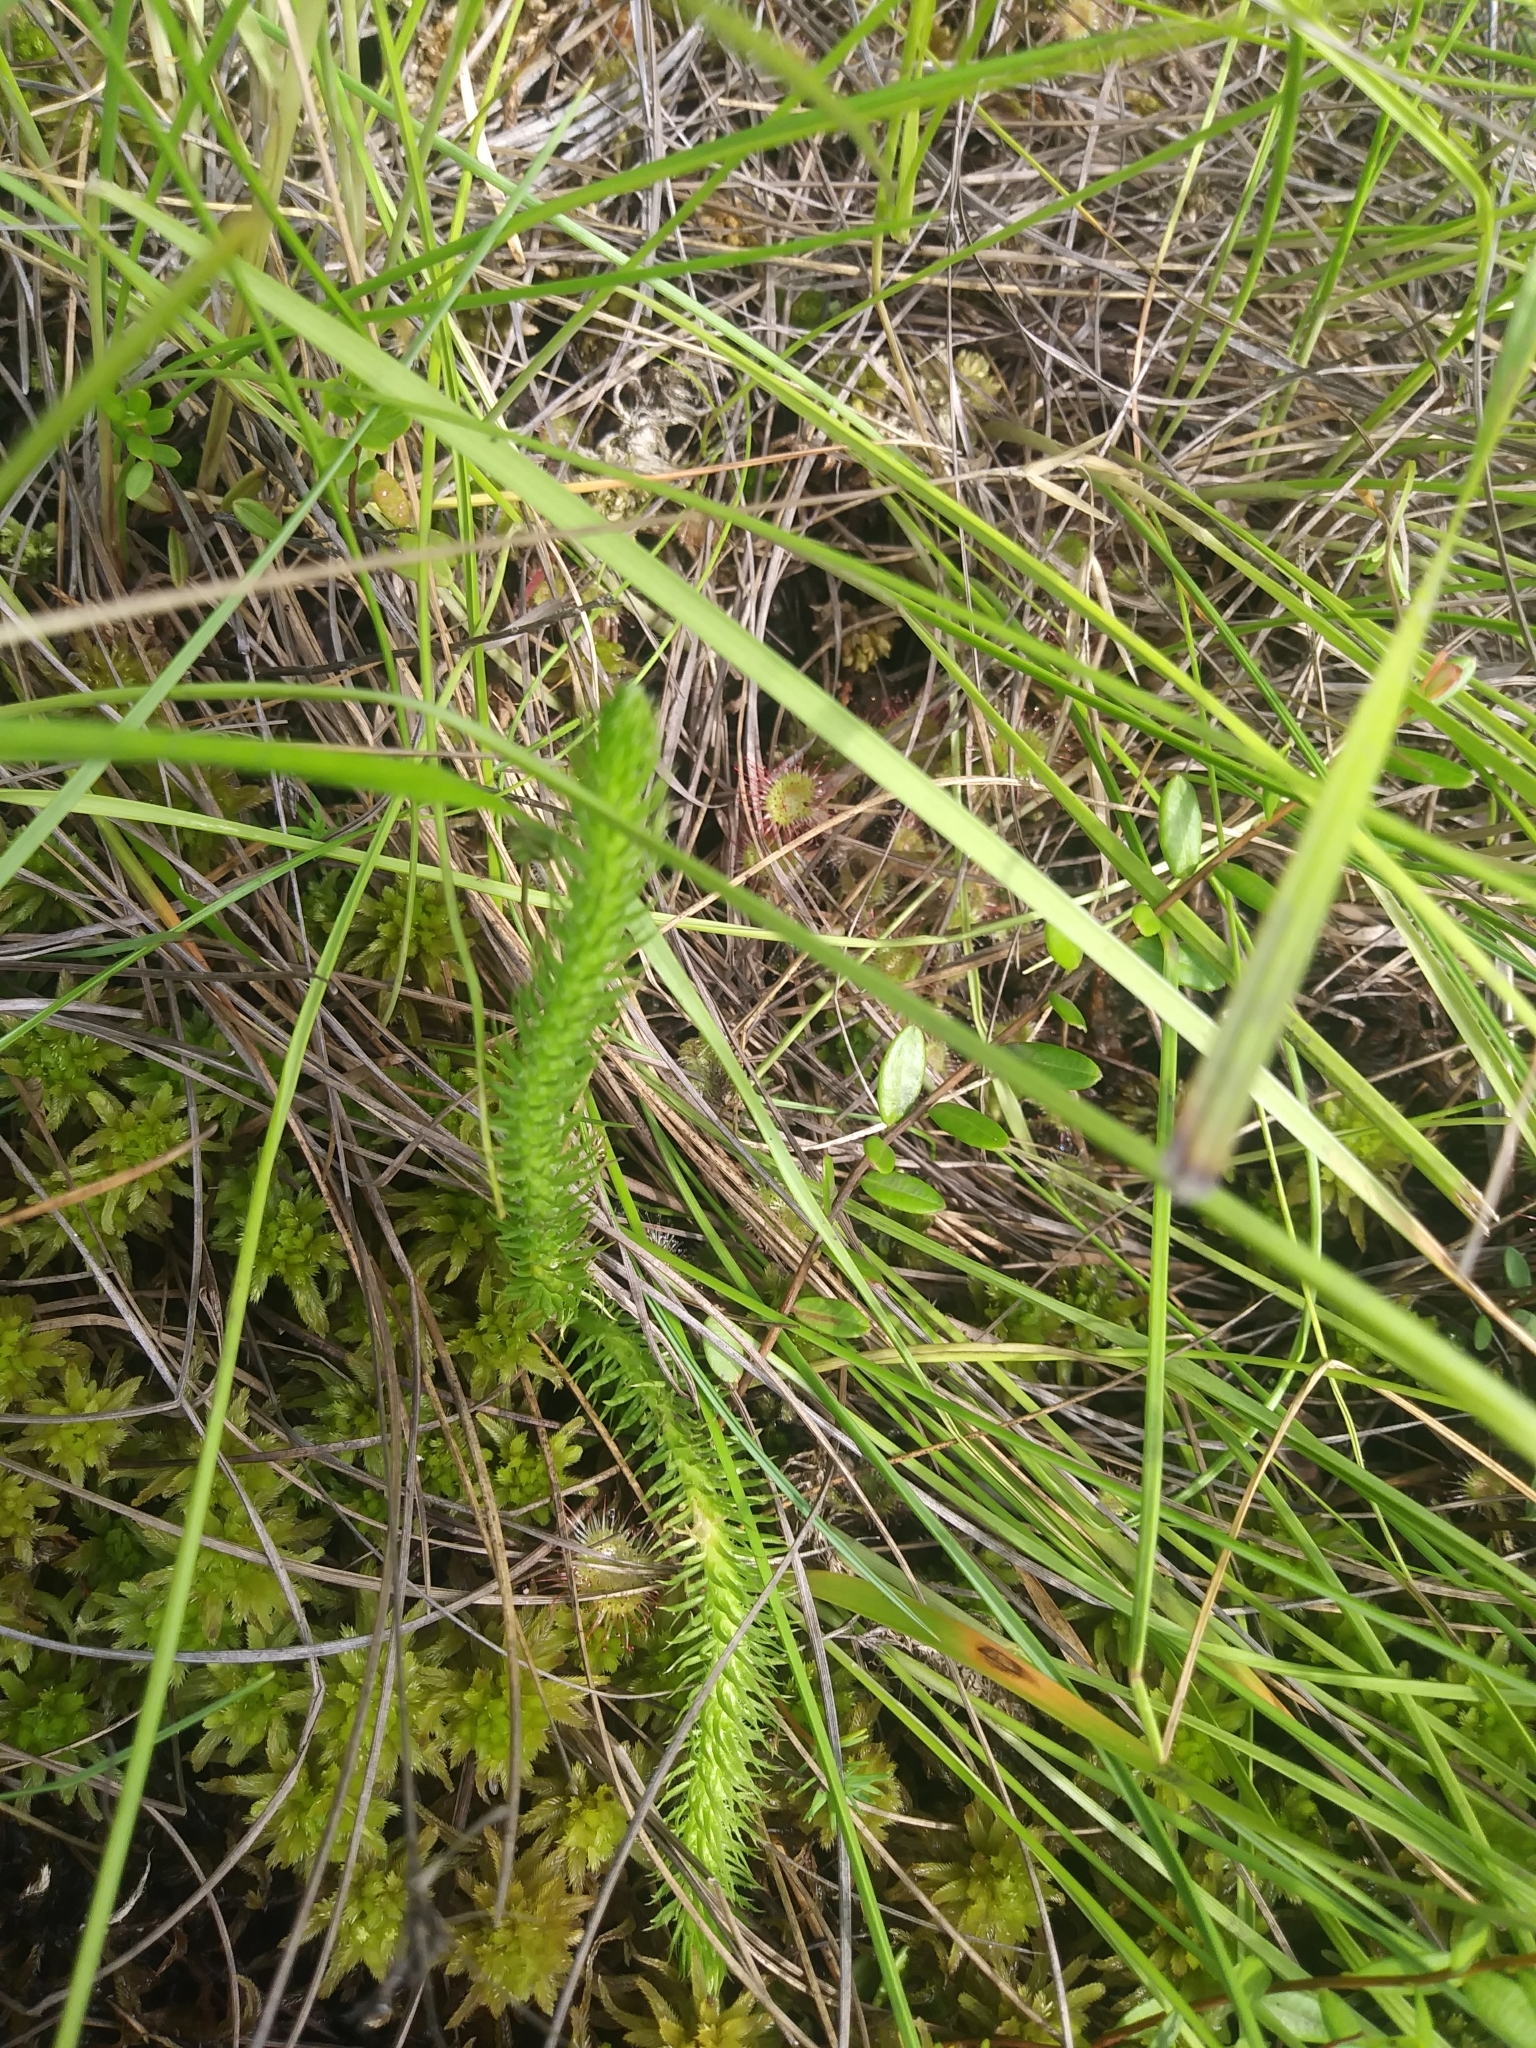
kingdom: Plantae
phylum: Tracheophyta
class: Lycopodiopsida
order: Lycopodiales
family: Lycopodiaceae
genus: Lycopodiella
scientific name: Lycopodiella alopecuroides
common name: Foxtail clubmoss
